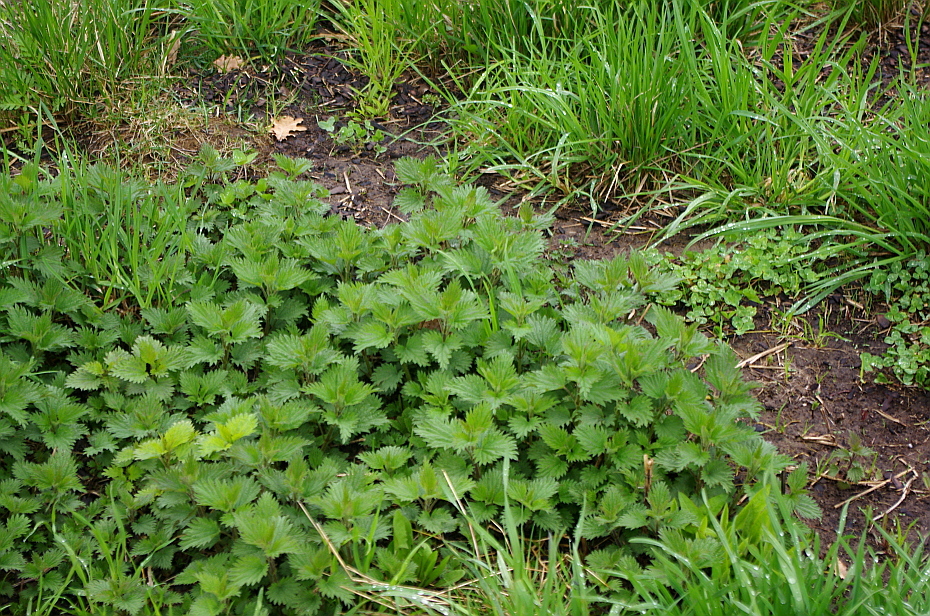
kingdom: Plantae
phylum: Tracheophyta
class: Magnoliopsida
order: Rosales
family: Urticaceae
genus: Urtica
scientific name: Urtica dioica
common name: Common nettle
